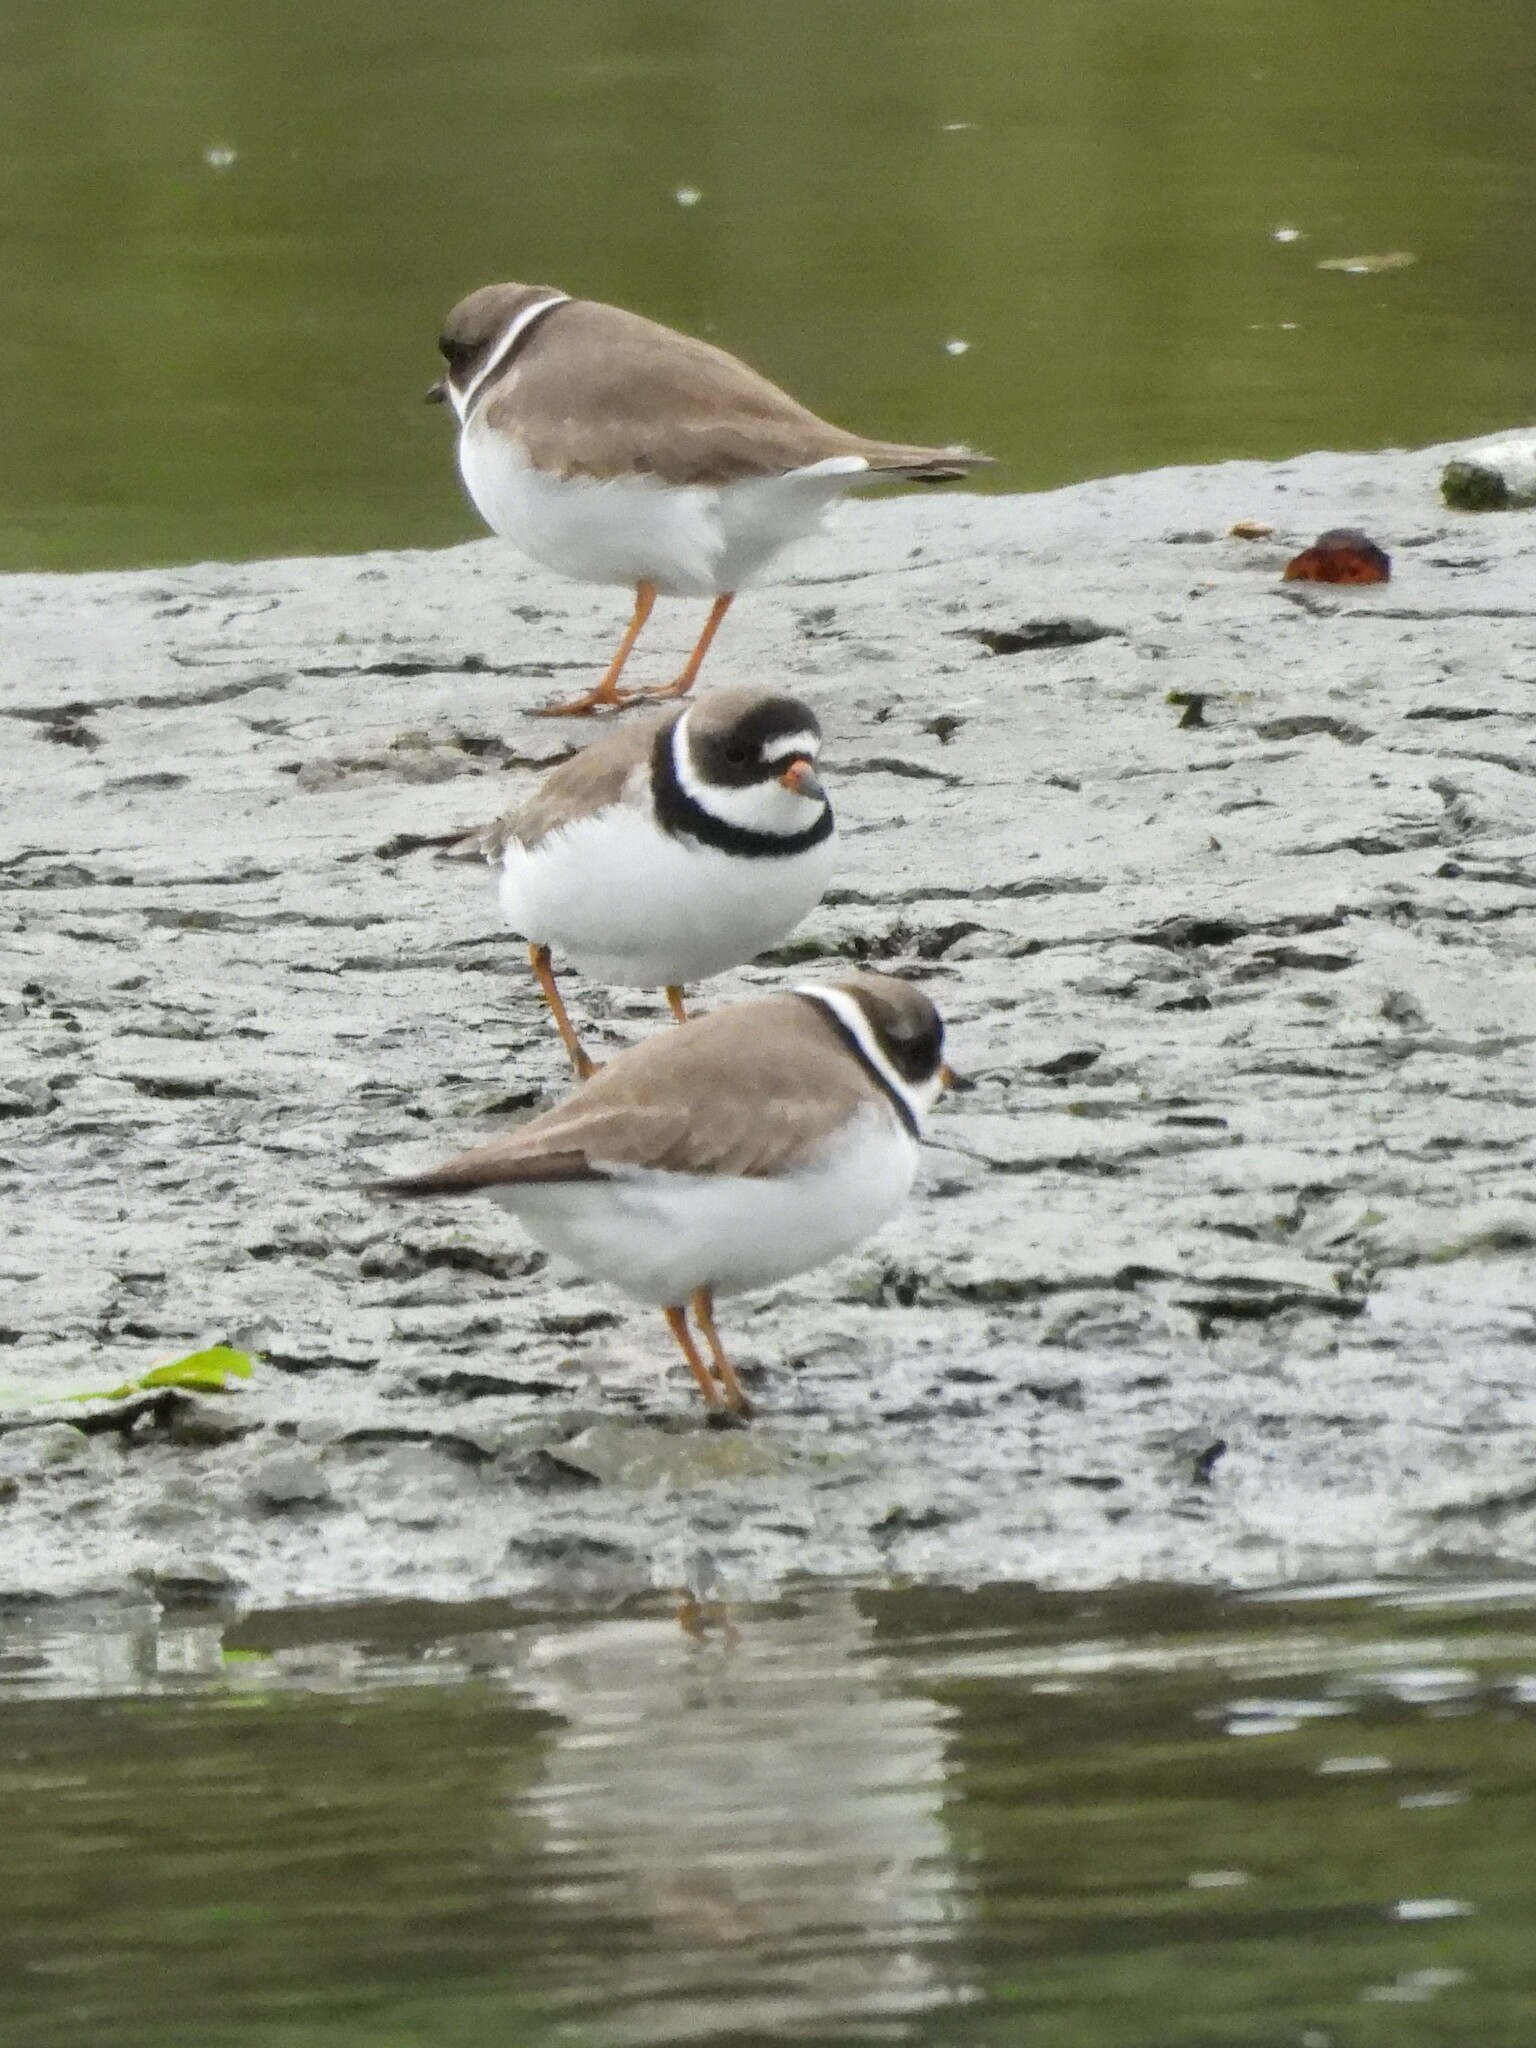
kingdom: Animalia
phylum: Chordata
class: Aves
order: Charadriiformes
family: Charadriidae
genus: Charadrius
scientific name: Charadrius semipalmatus
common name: Semipalmated plover
